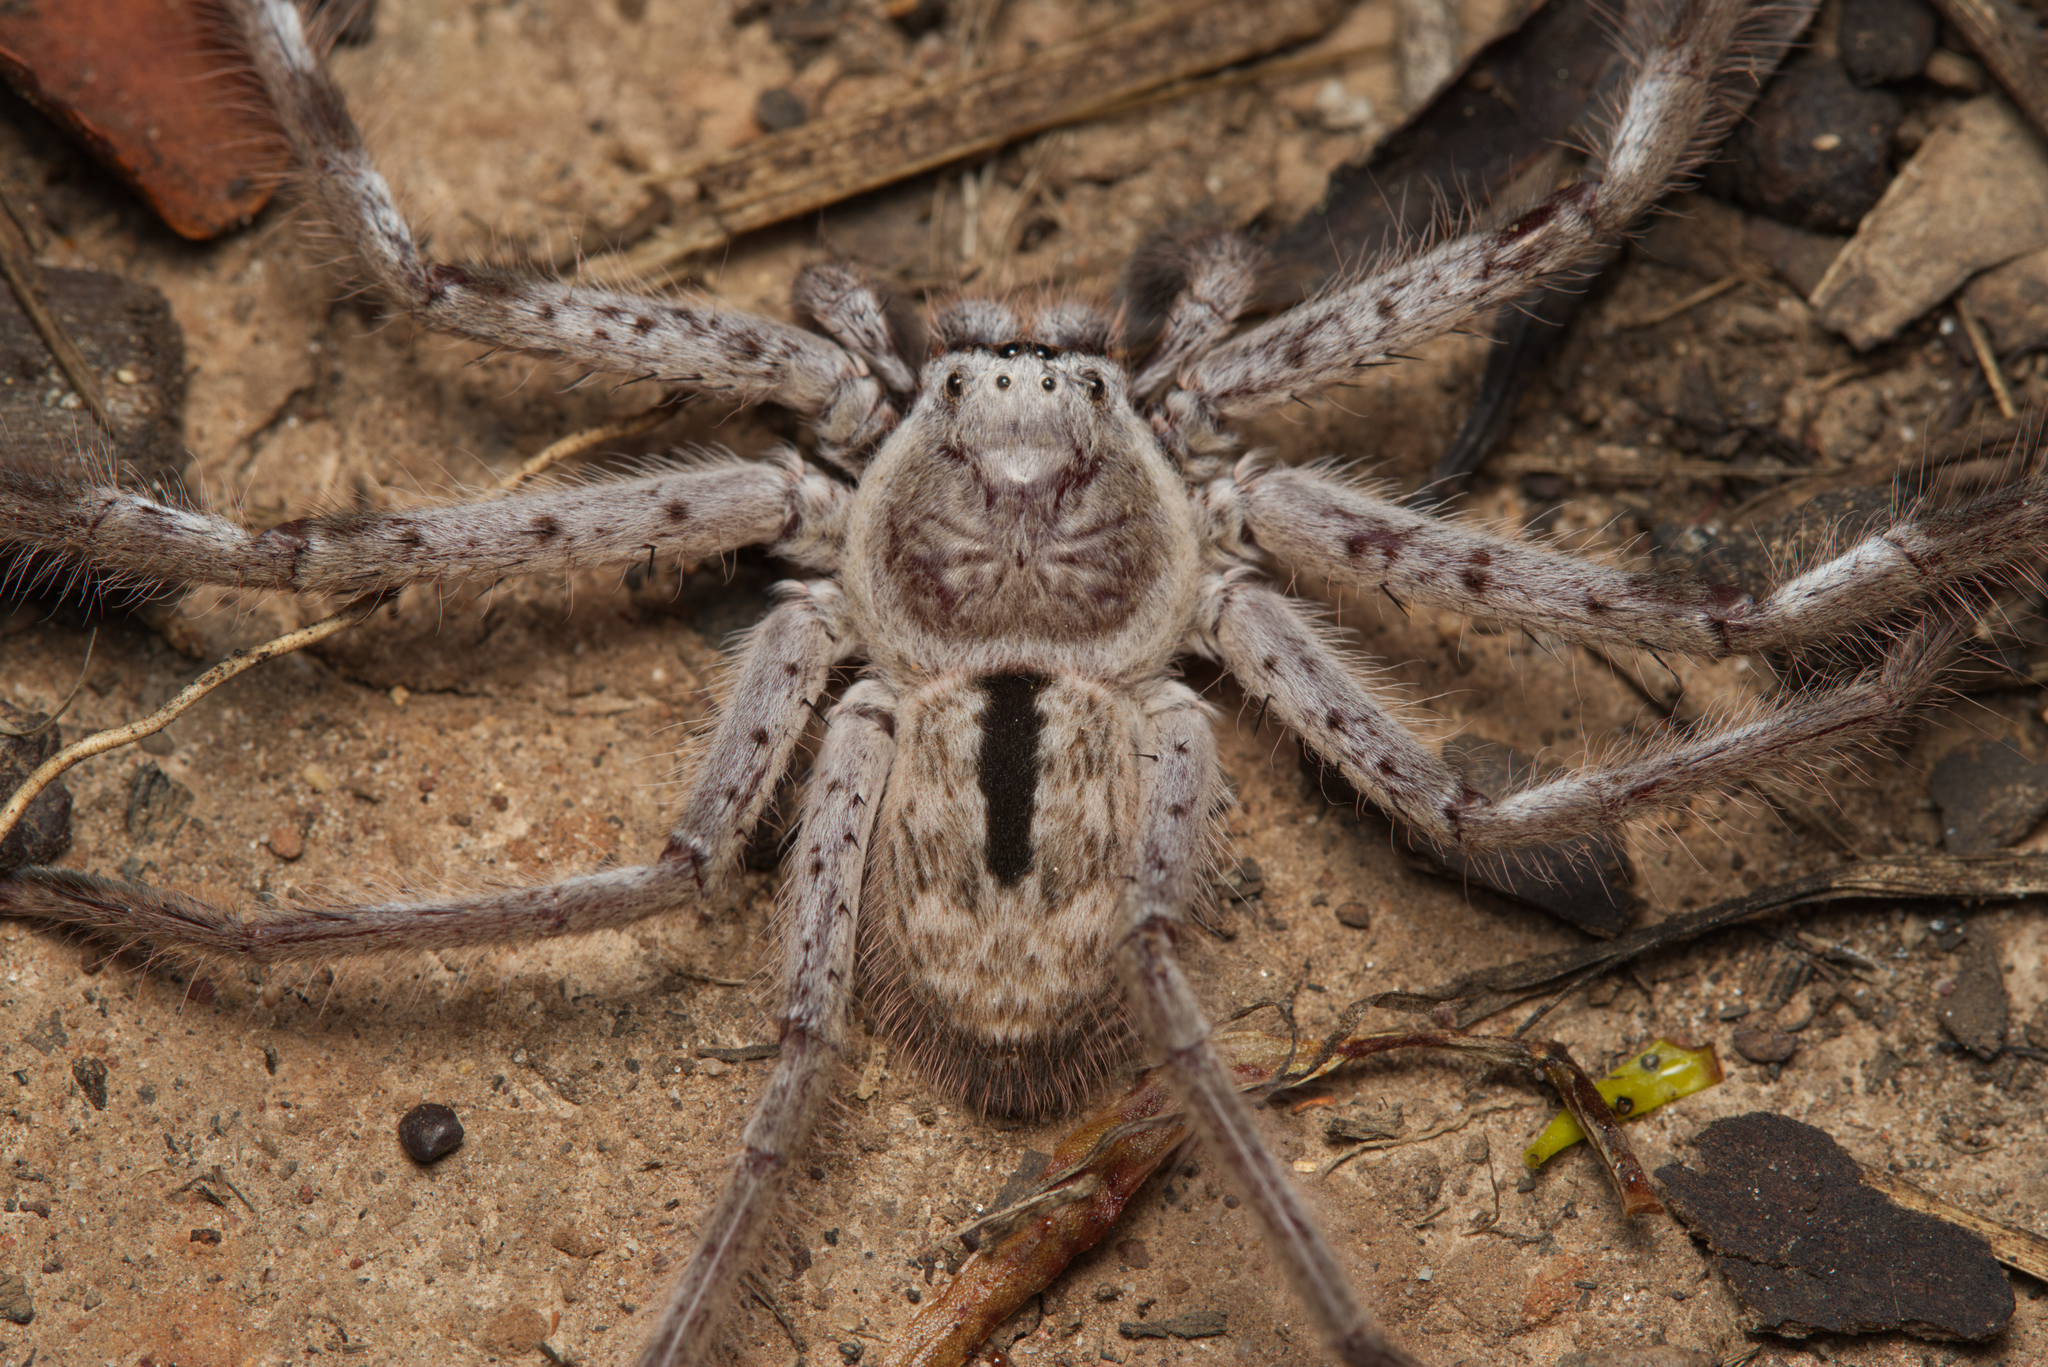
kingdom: Animalia
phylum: Arthropoda
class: Arachnida
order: Araneae
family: Sparassidae
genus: Holconia
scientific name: Holconia immanis
